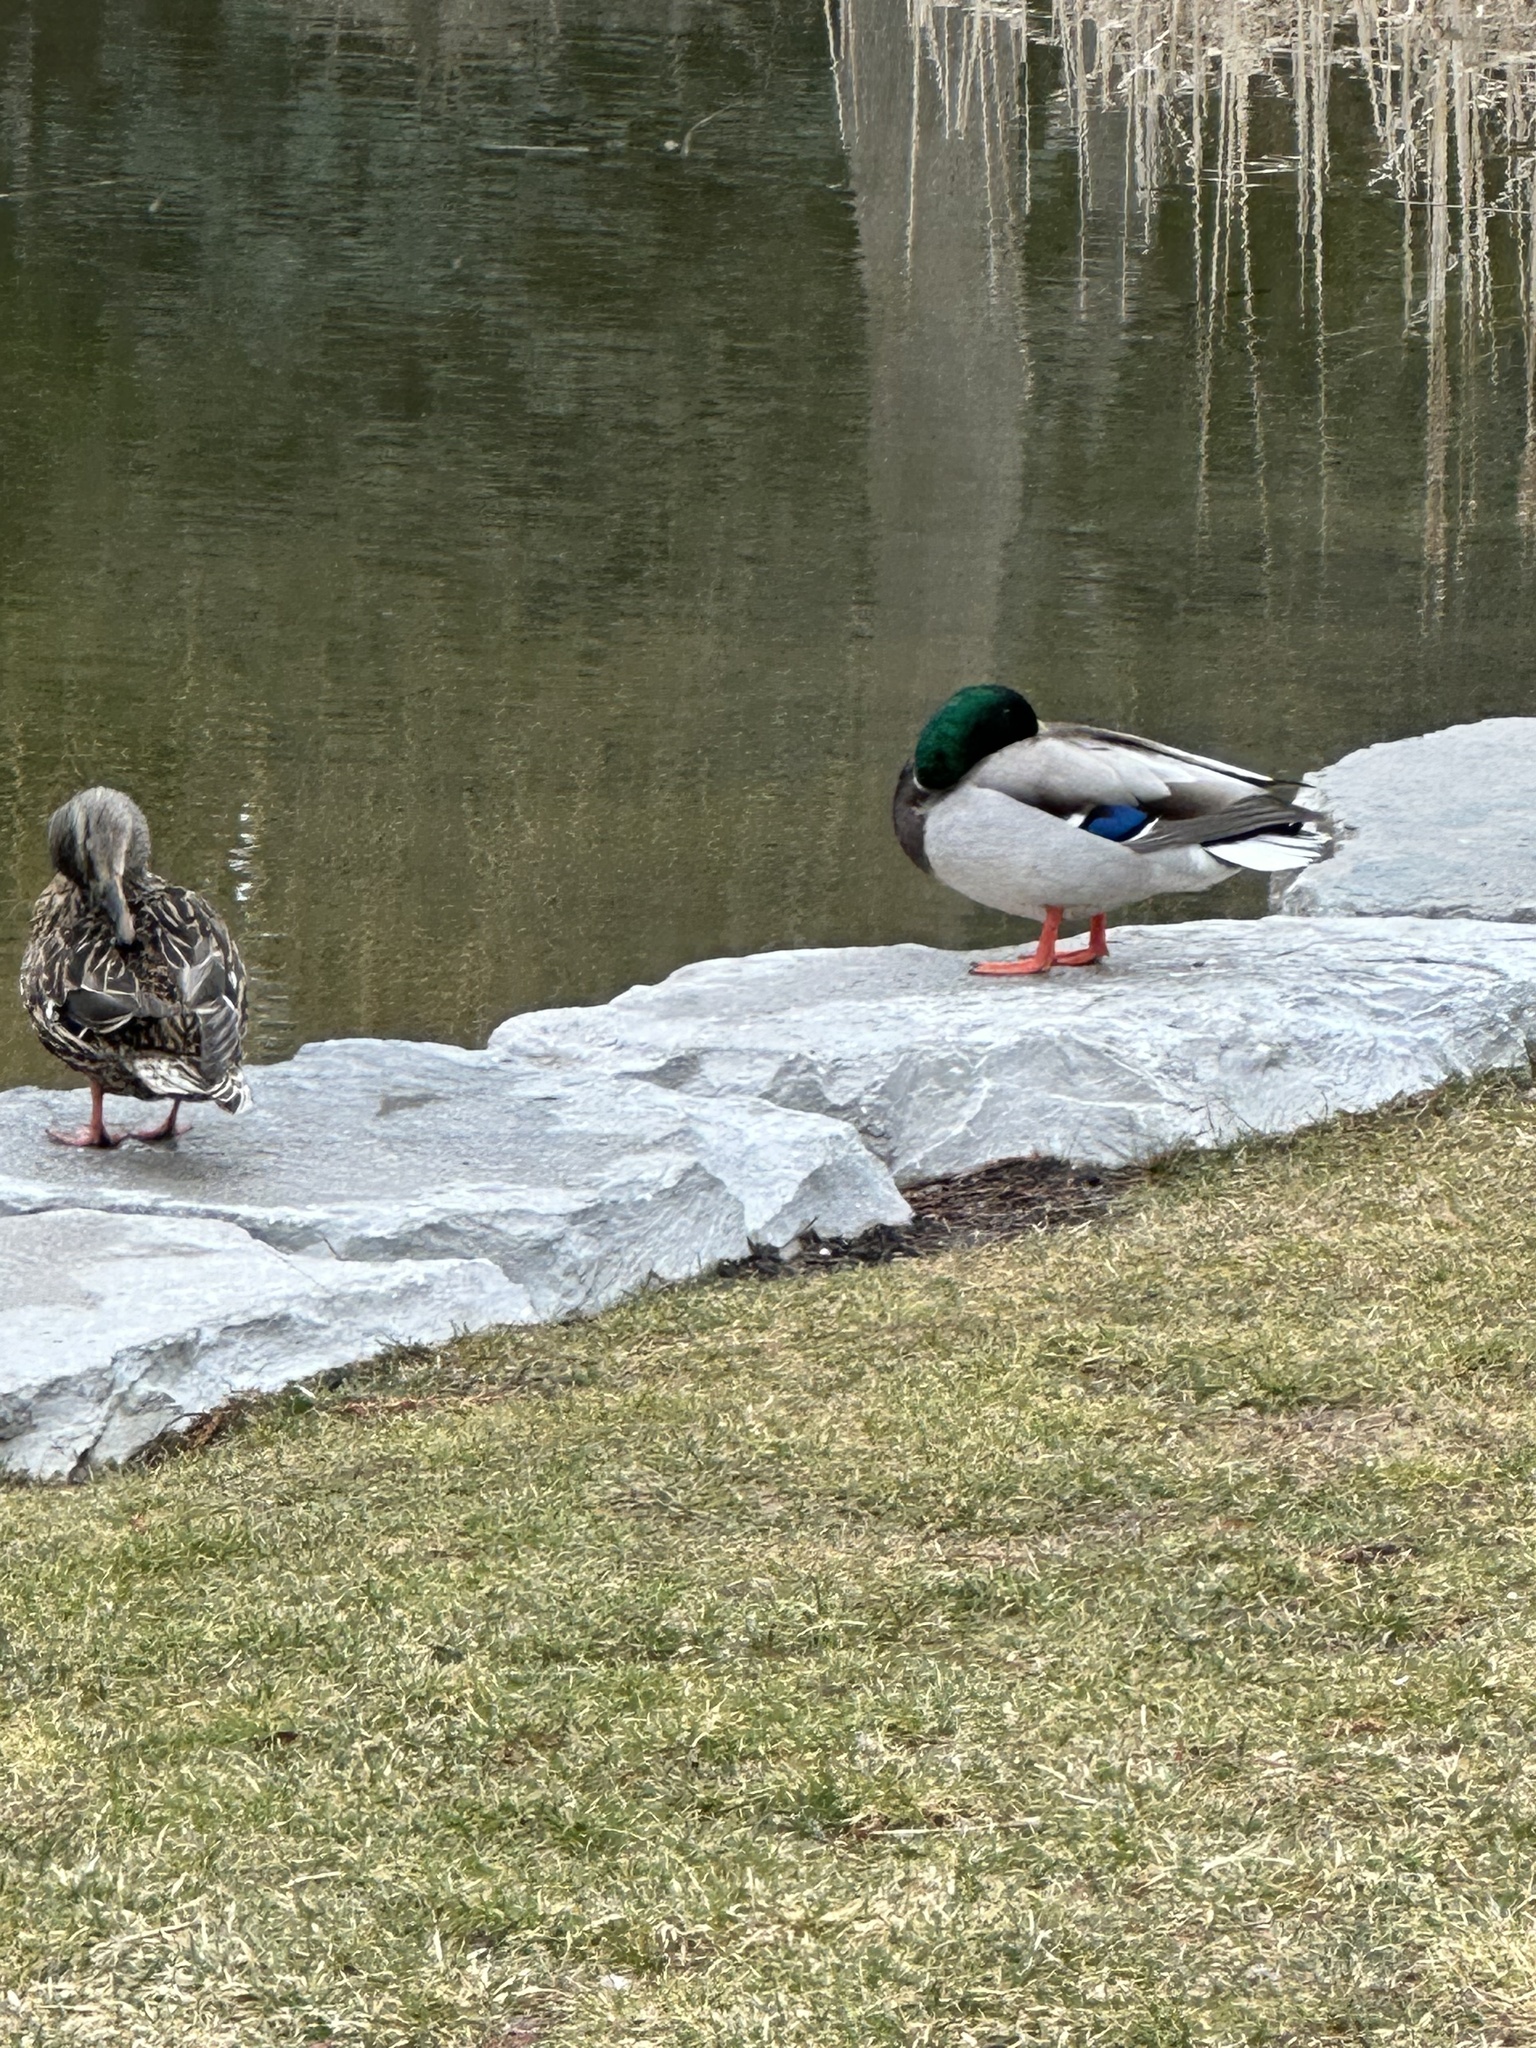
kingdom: Animalia
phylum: Chordata
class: Aves
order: Anseriformes
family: Anatidae
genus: Anas
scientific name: Anas platyrhynchos
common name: Mallard
